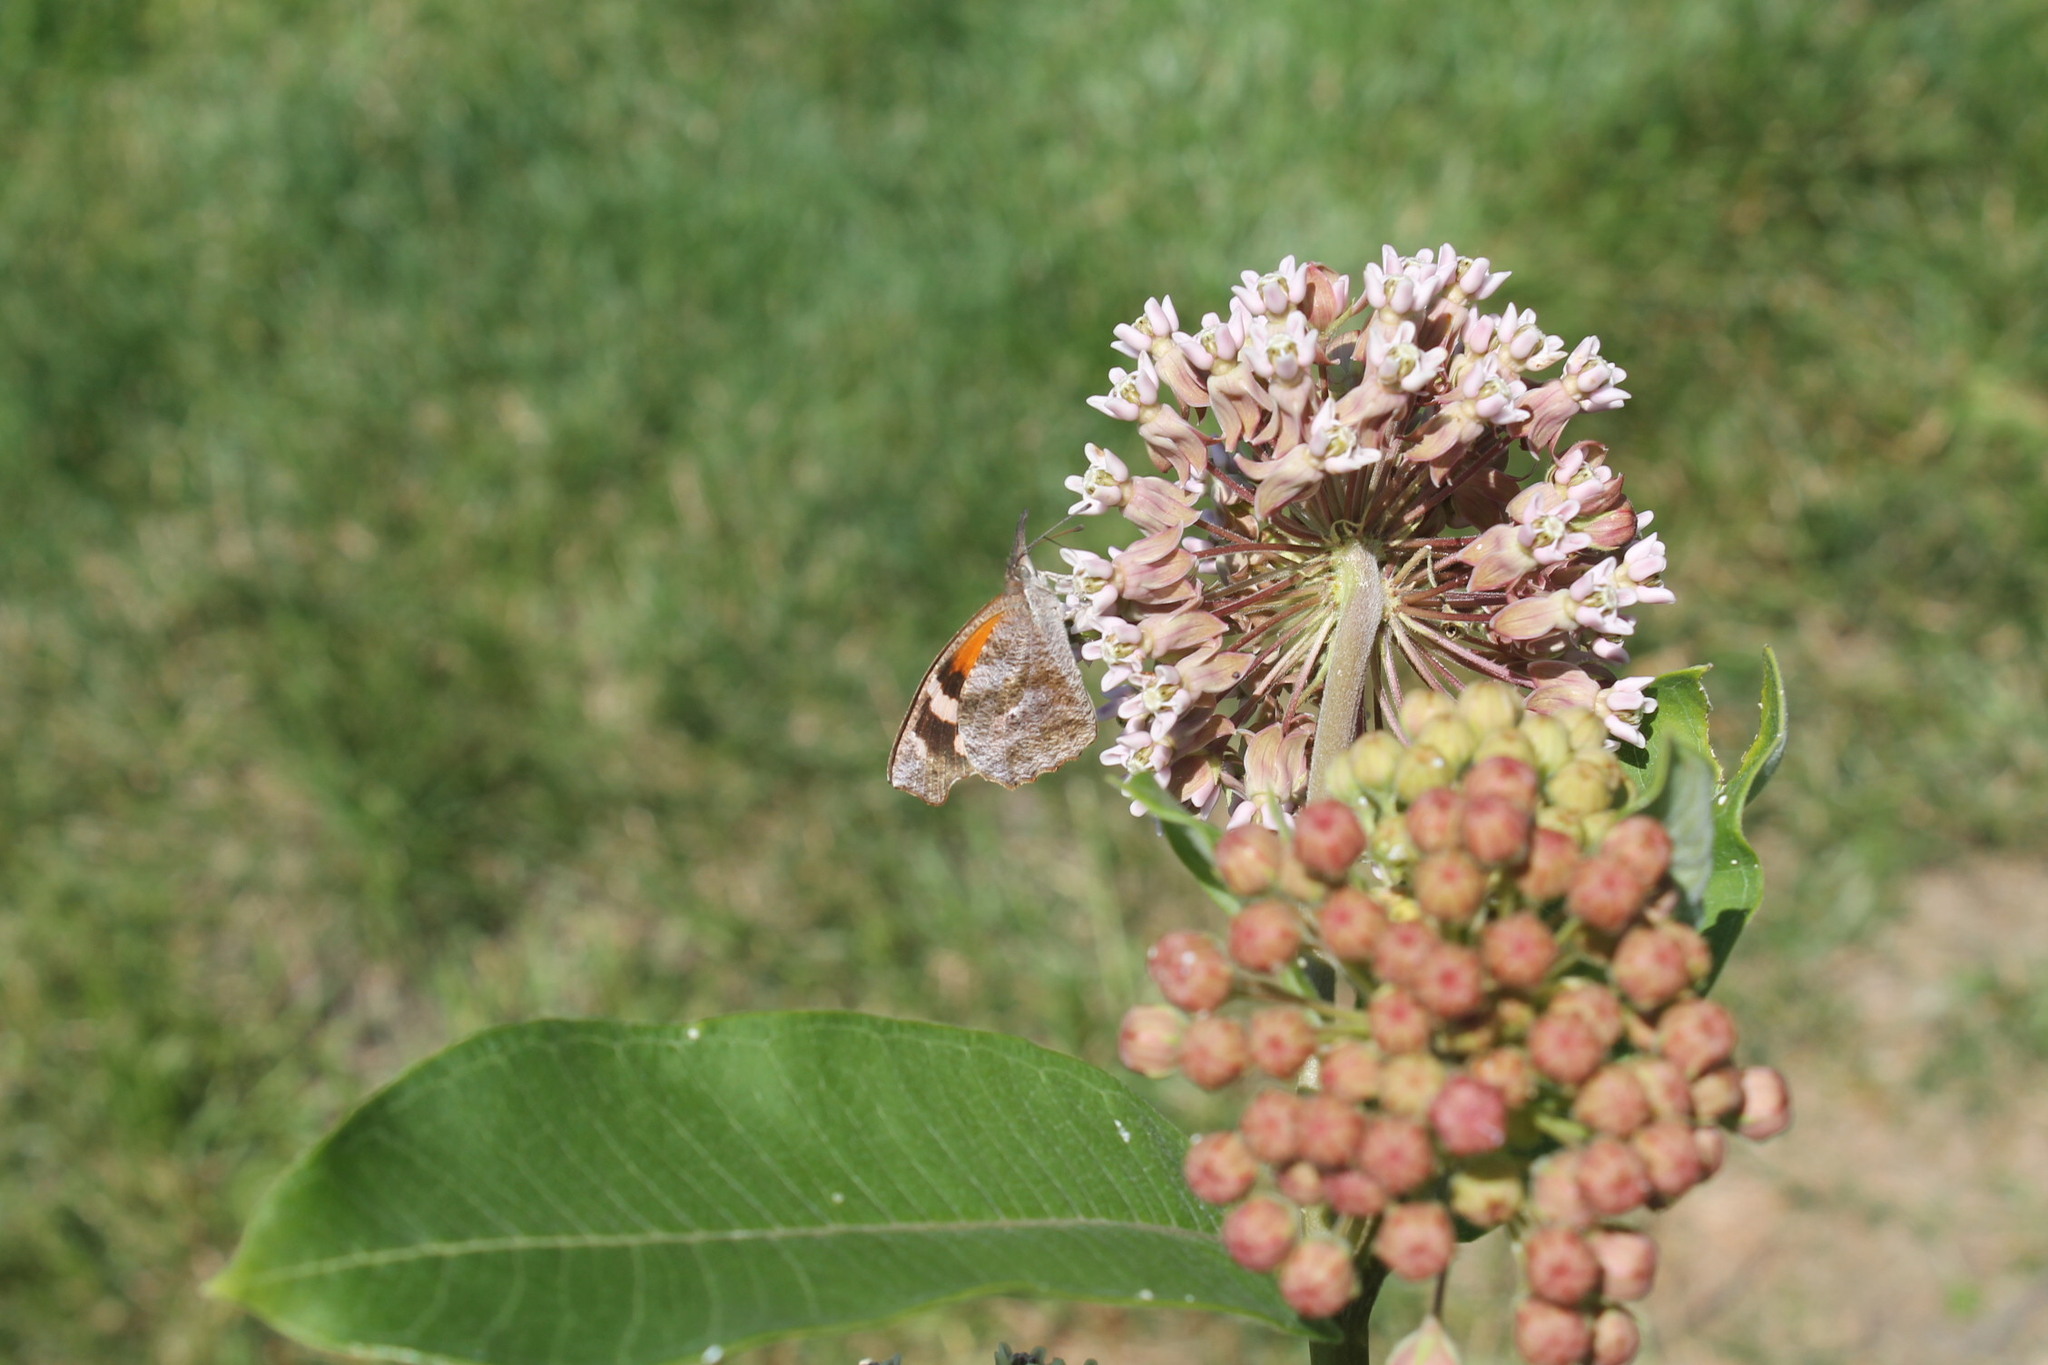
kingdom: Animalia
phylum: Arthropoda
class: Insecta
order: Lepidoptera
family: Nymphalidae
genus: Libytheana
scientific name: Libytheana carinenta
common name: American snout
